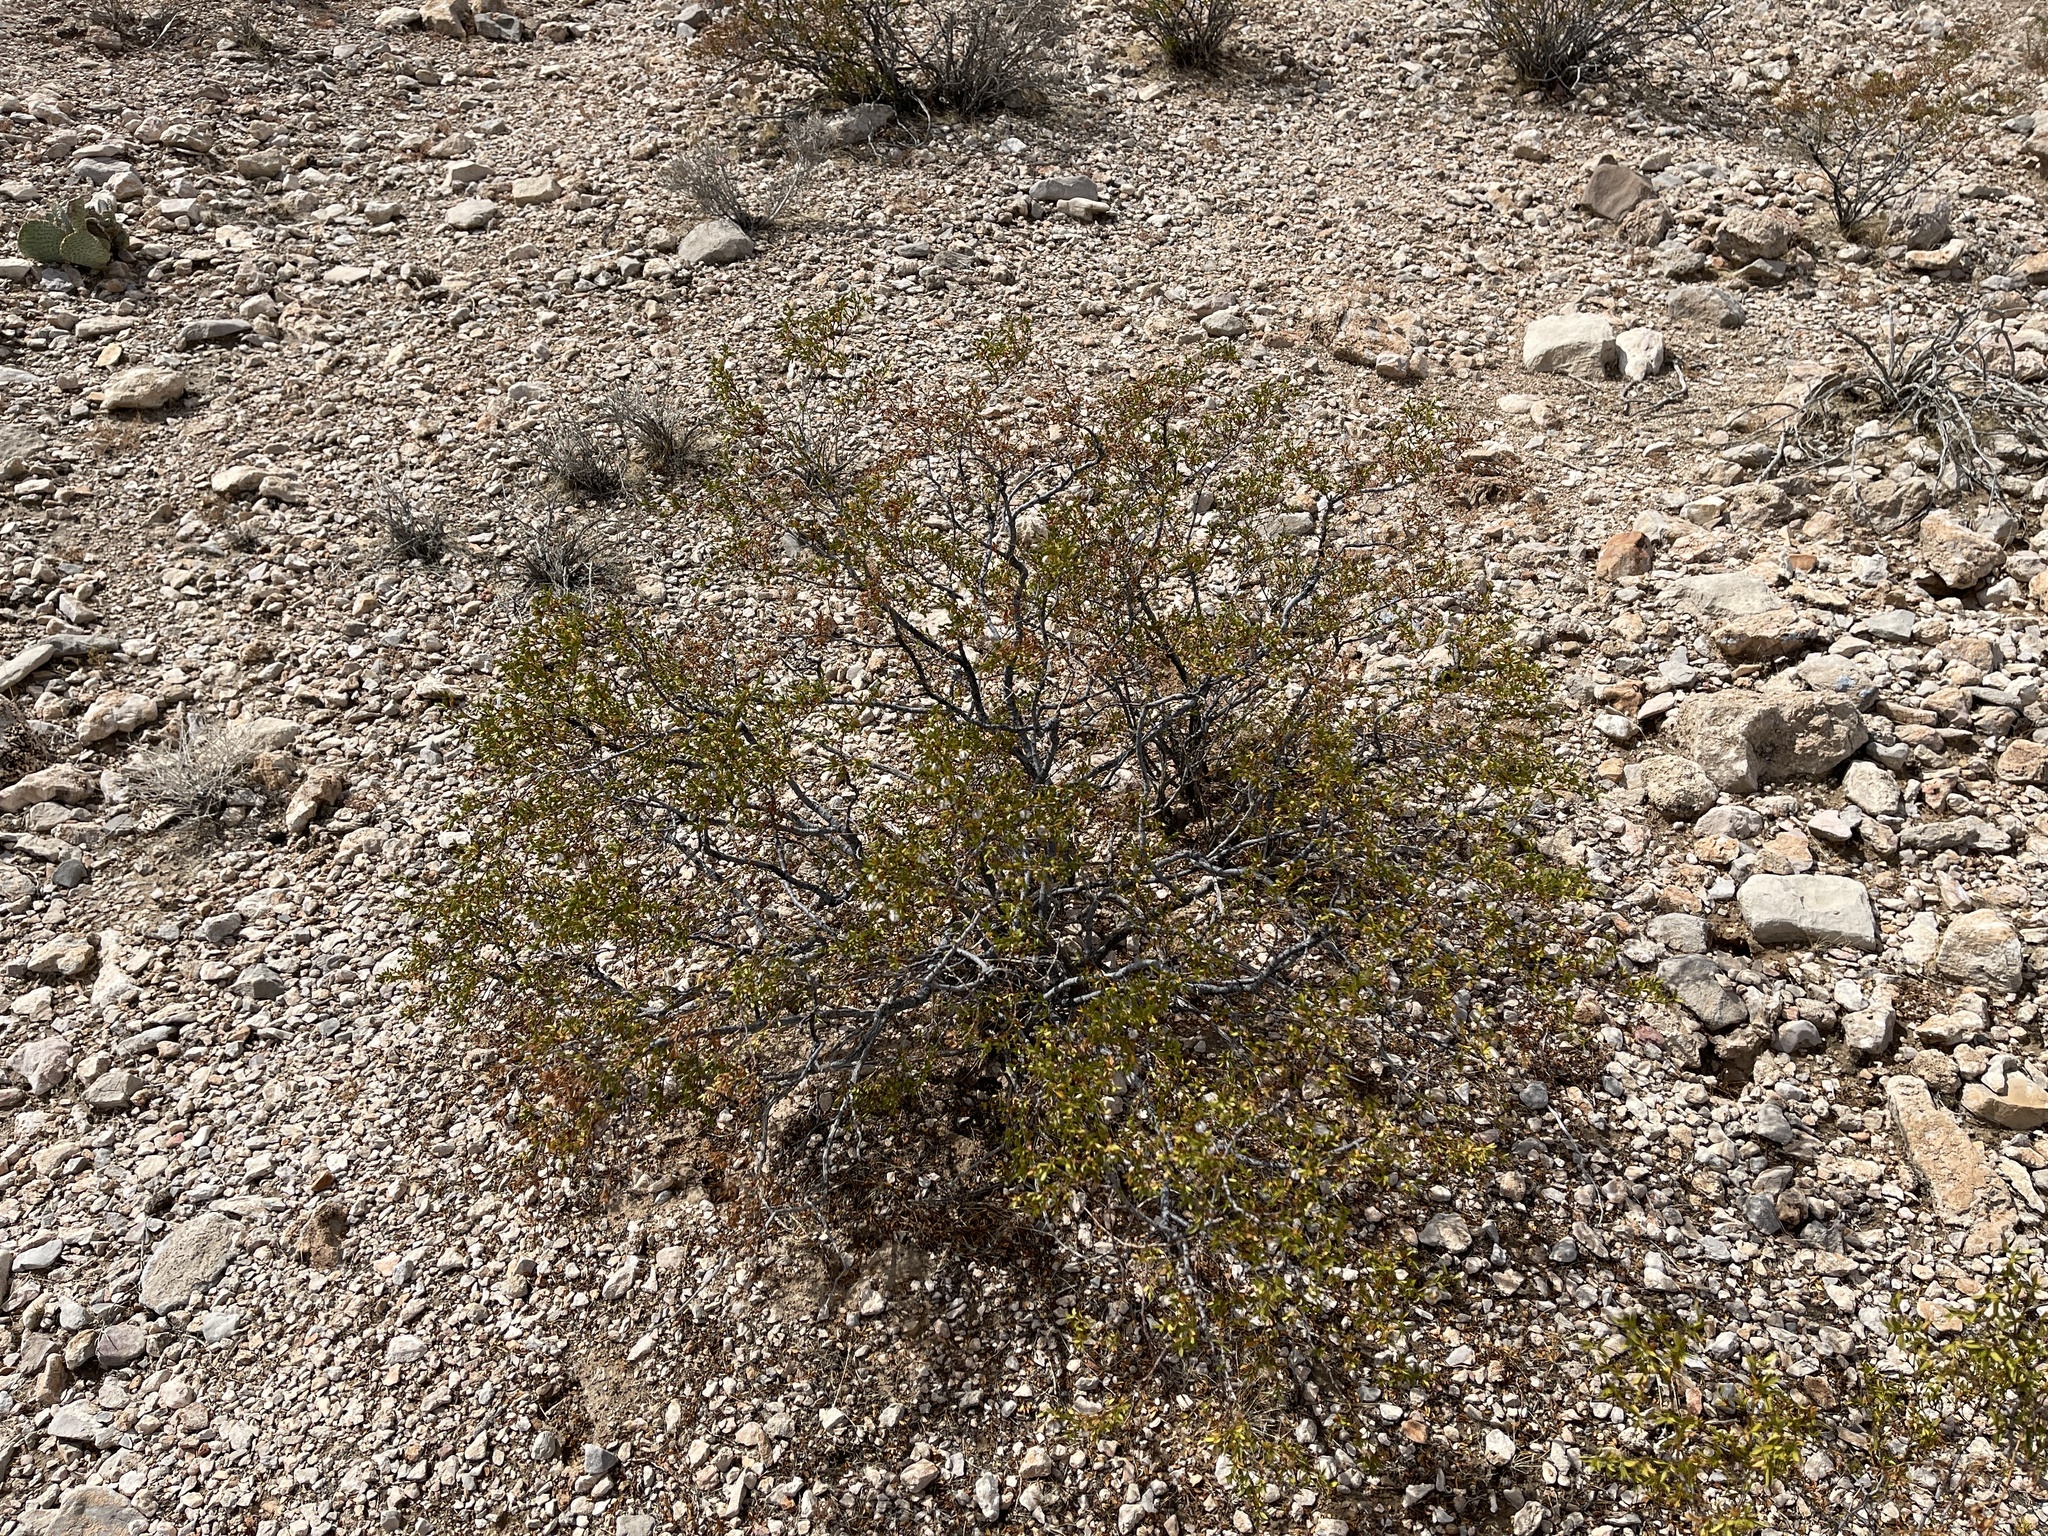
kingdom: Plantae
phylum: Tracheophyta
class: Magnoliopsida
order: Zygophyllales
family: Zygophyllaceae
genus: Larrea
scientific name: Larrea tridentata
